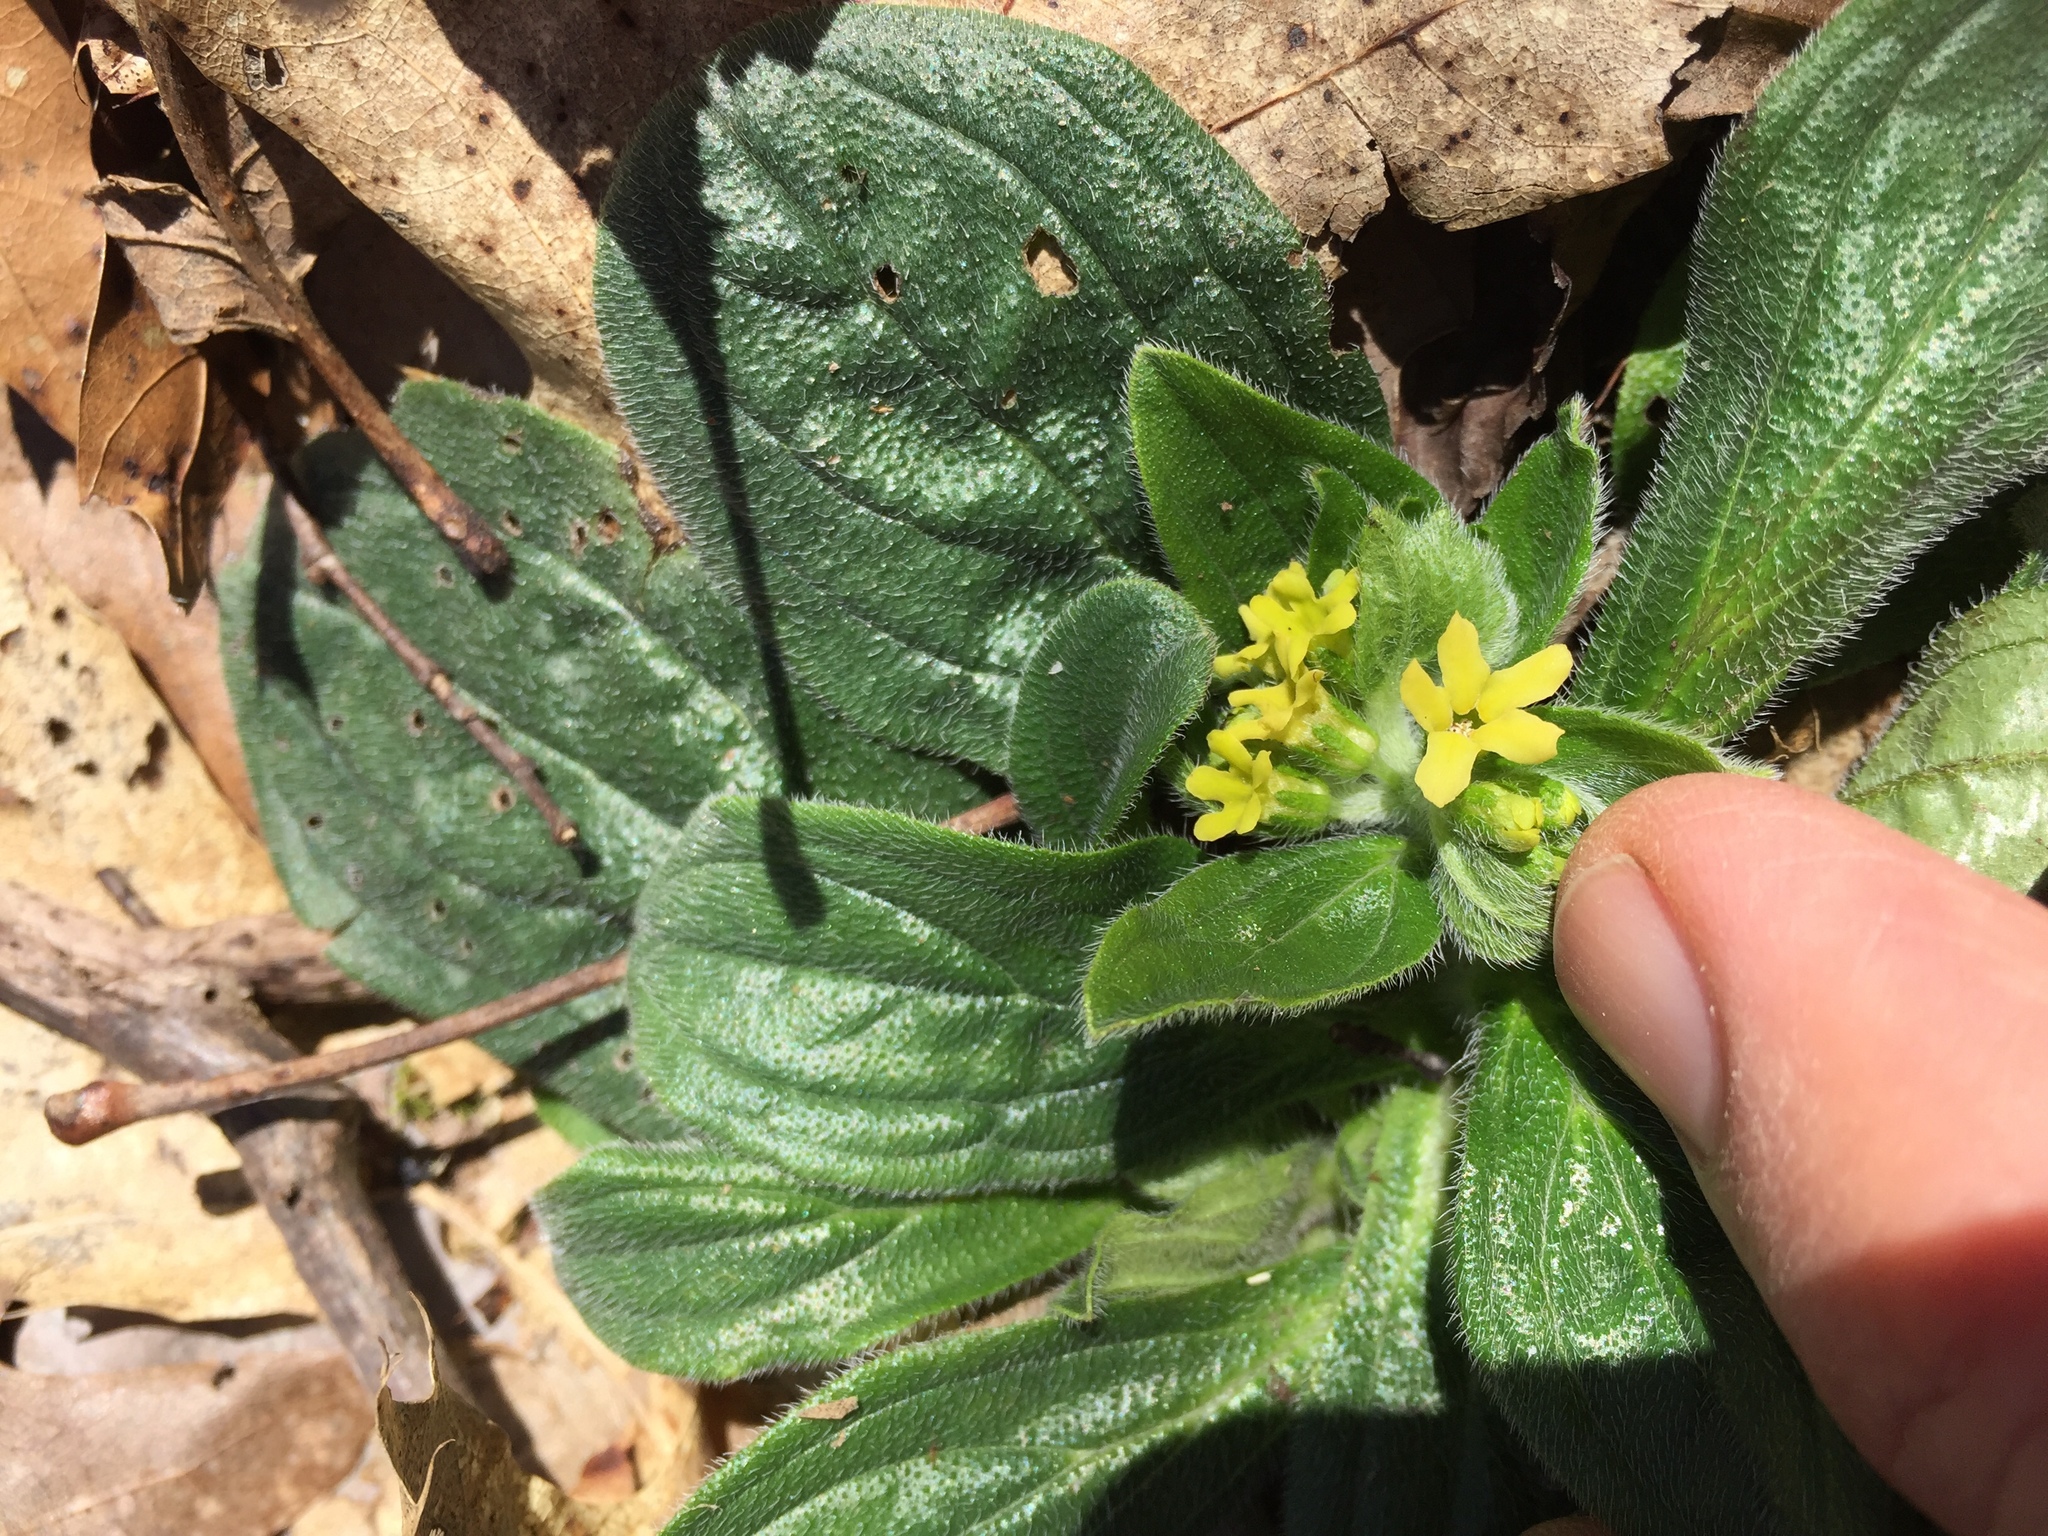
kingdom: Plantae
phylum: Tracheophyta
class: Magnoliopsida
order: Boraginales
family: Boraginaceae
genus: Lithospermum
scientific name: Lithospermum tuberosum
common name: Southern stoneseed
